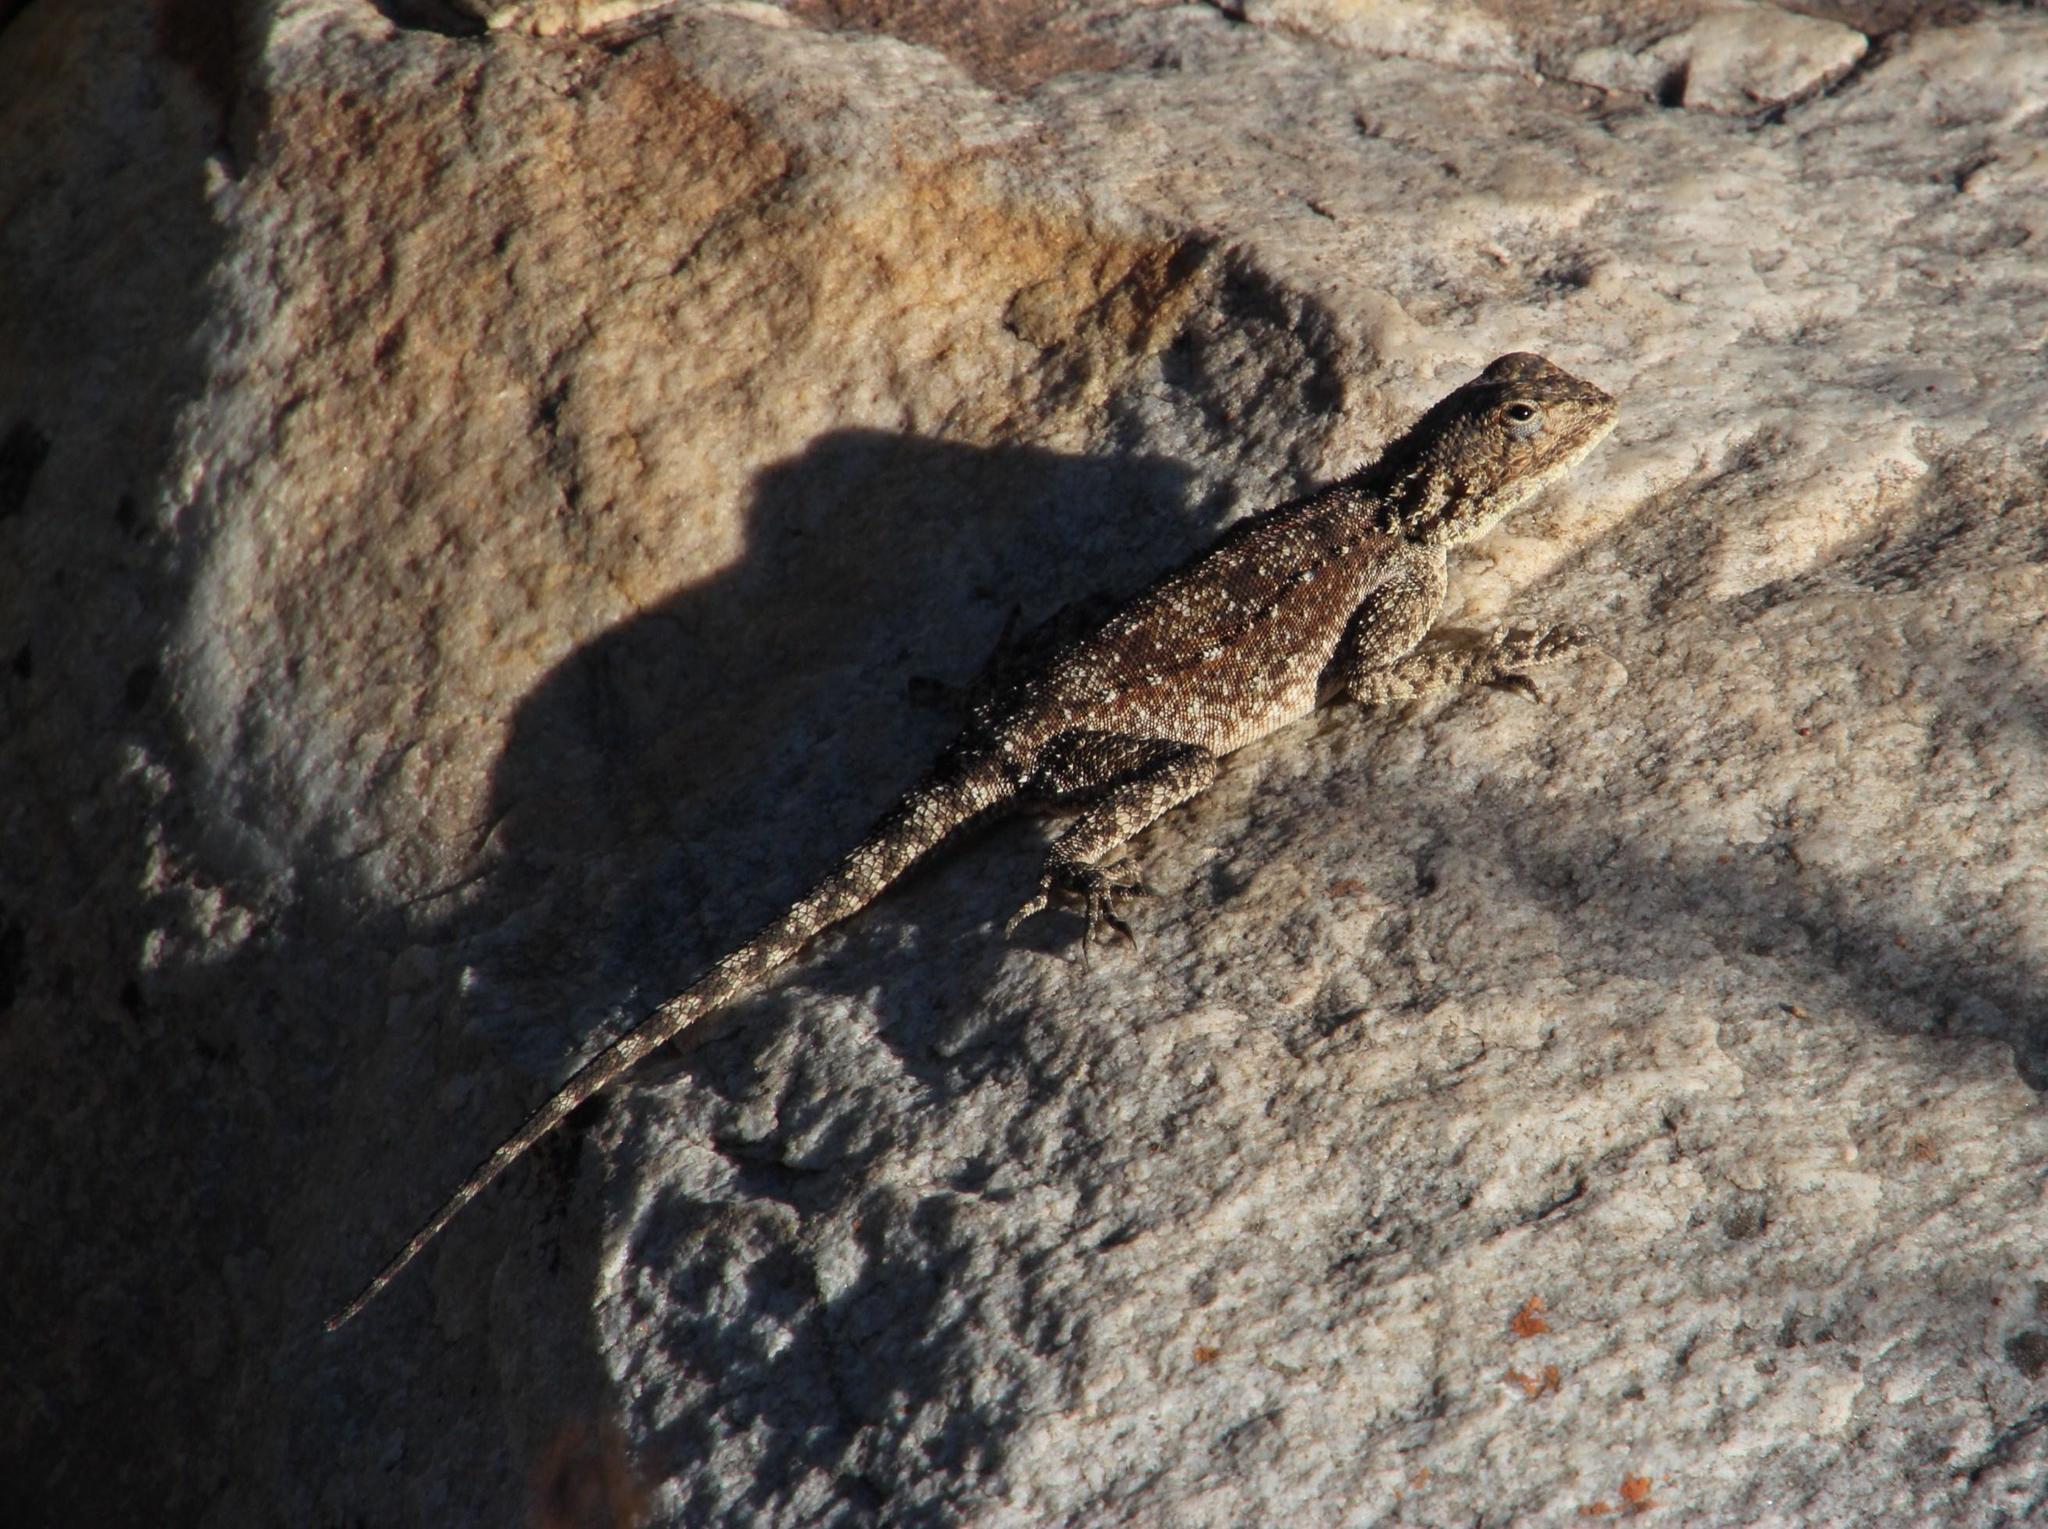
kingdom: Animalia
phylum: Chordata
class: Squamata
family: Agamidae
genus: Agama
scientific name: Agama atra
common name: Southern african rock agama
